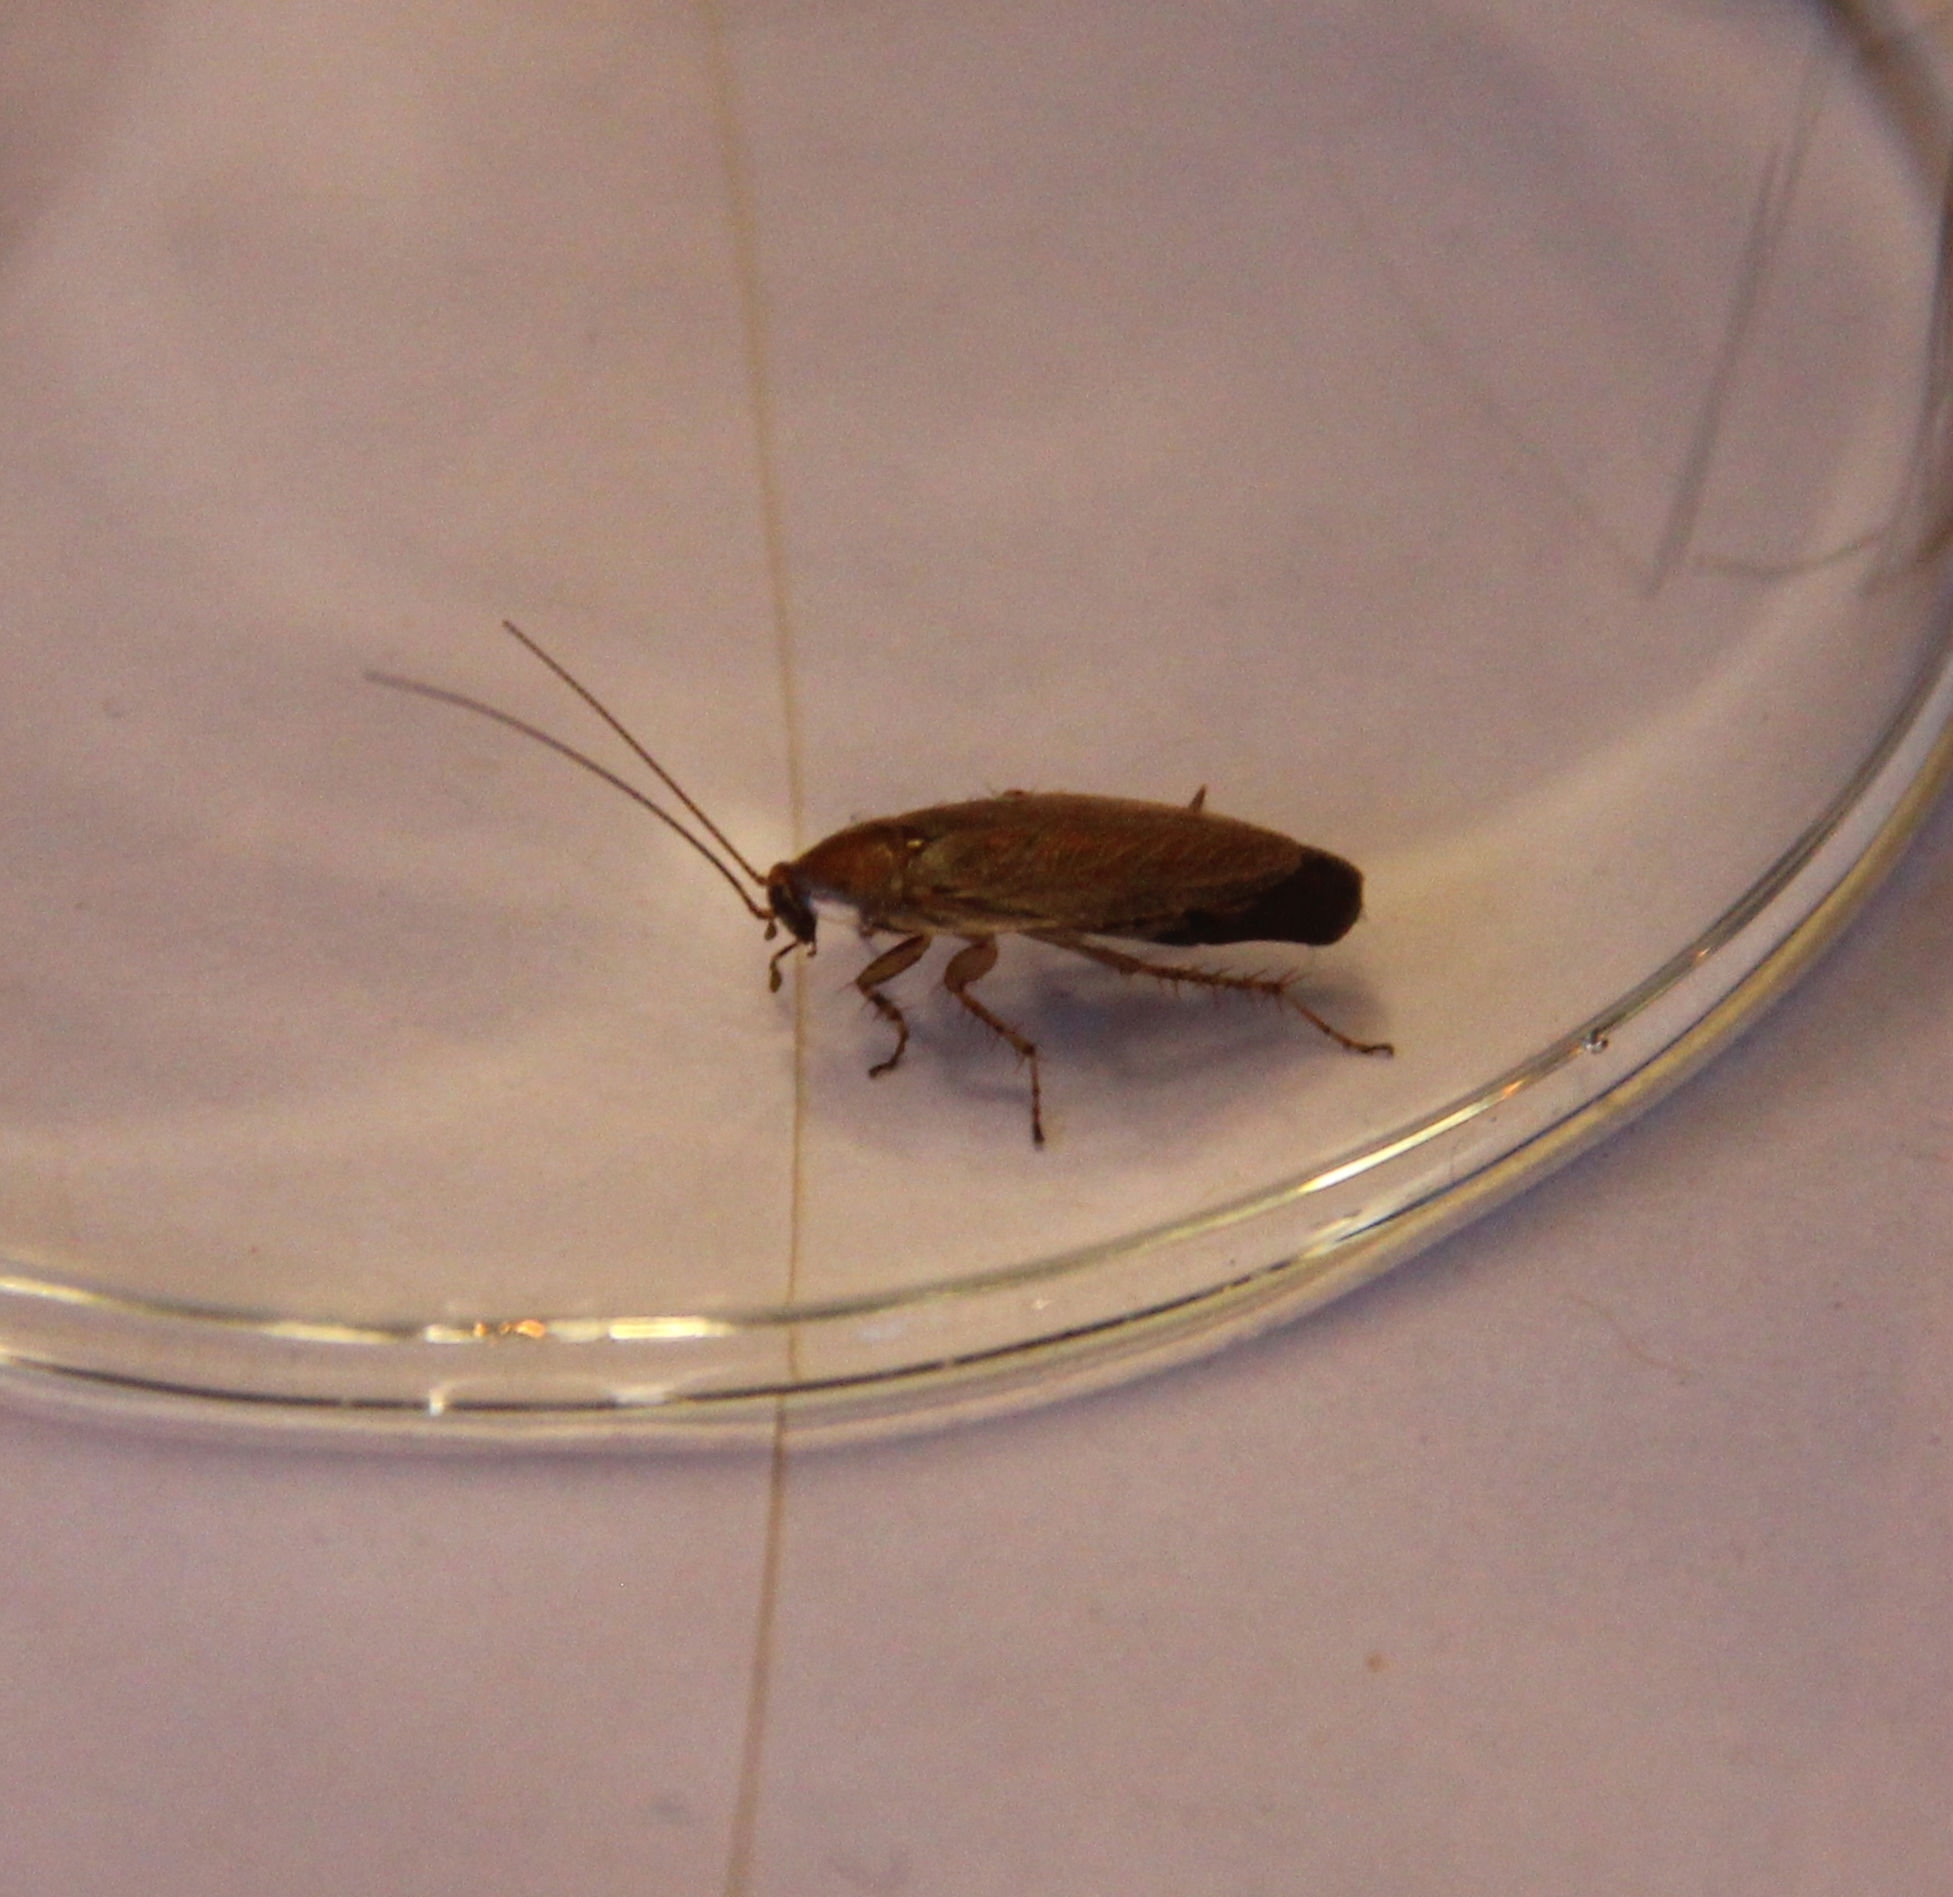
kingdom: Animalia
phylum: Arthropoda
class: Insecta
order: Blattodea
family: Ectobiidae
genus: Ectobius
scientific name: Ectobius vittiventris
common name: Garden cockroach
